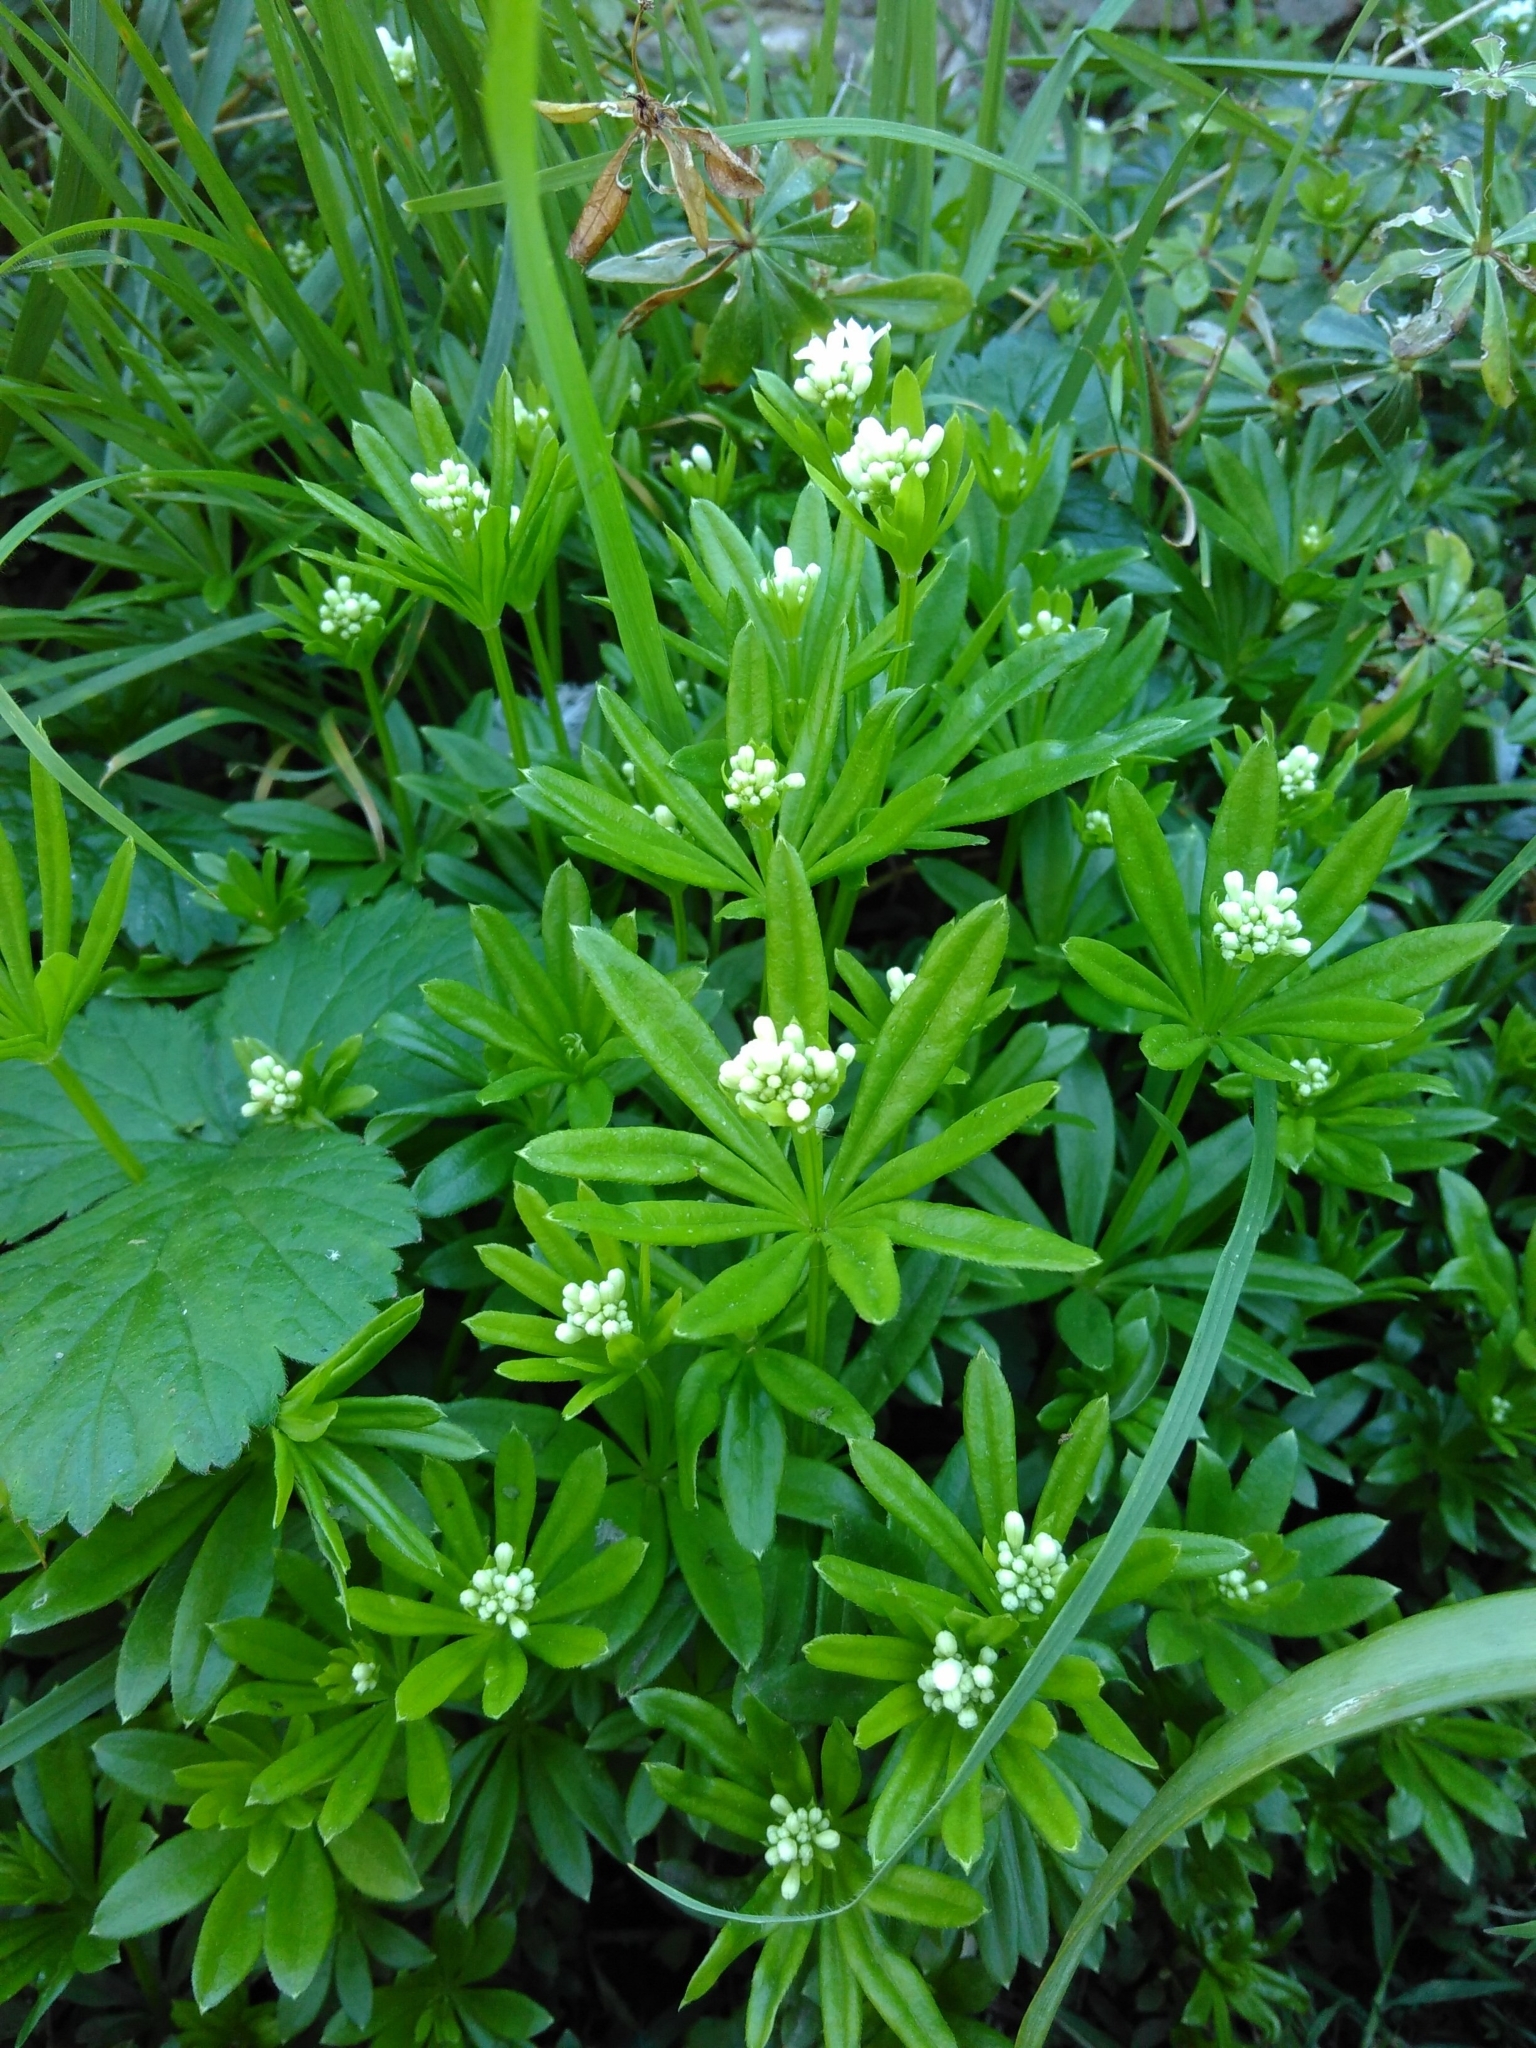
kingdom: Plantae
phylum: Tracheophyta
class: Magnoliopsida
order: Gentianales
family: Rubiaceae
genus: Galium
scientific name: Galium odoratum
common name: Sweet woodruff
